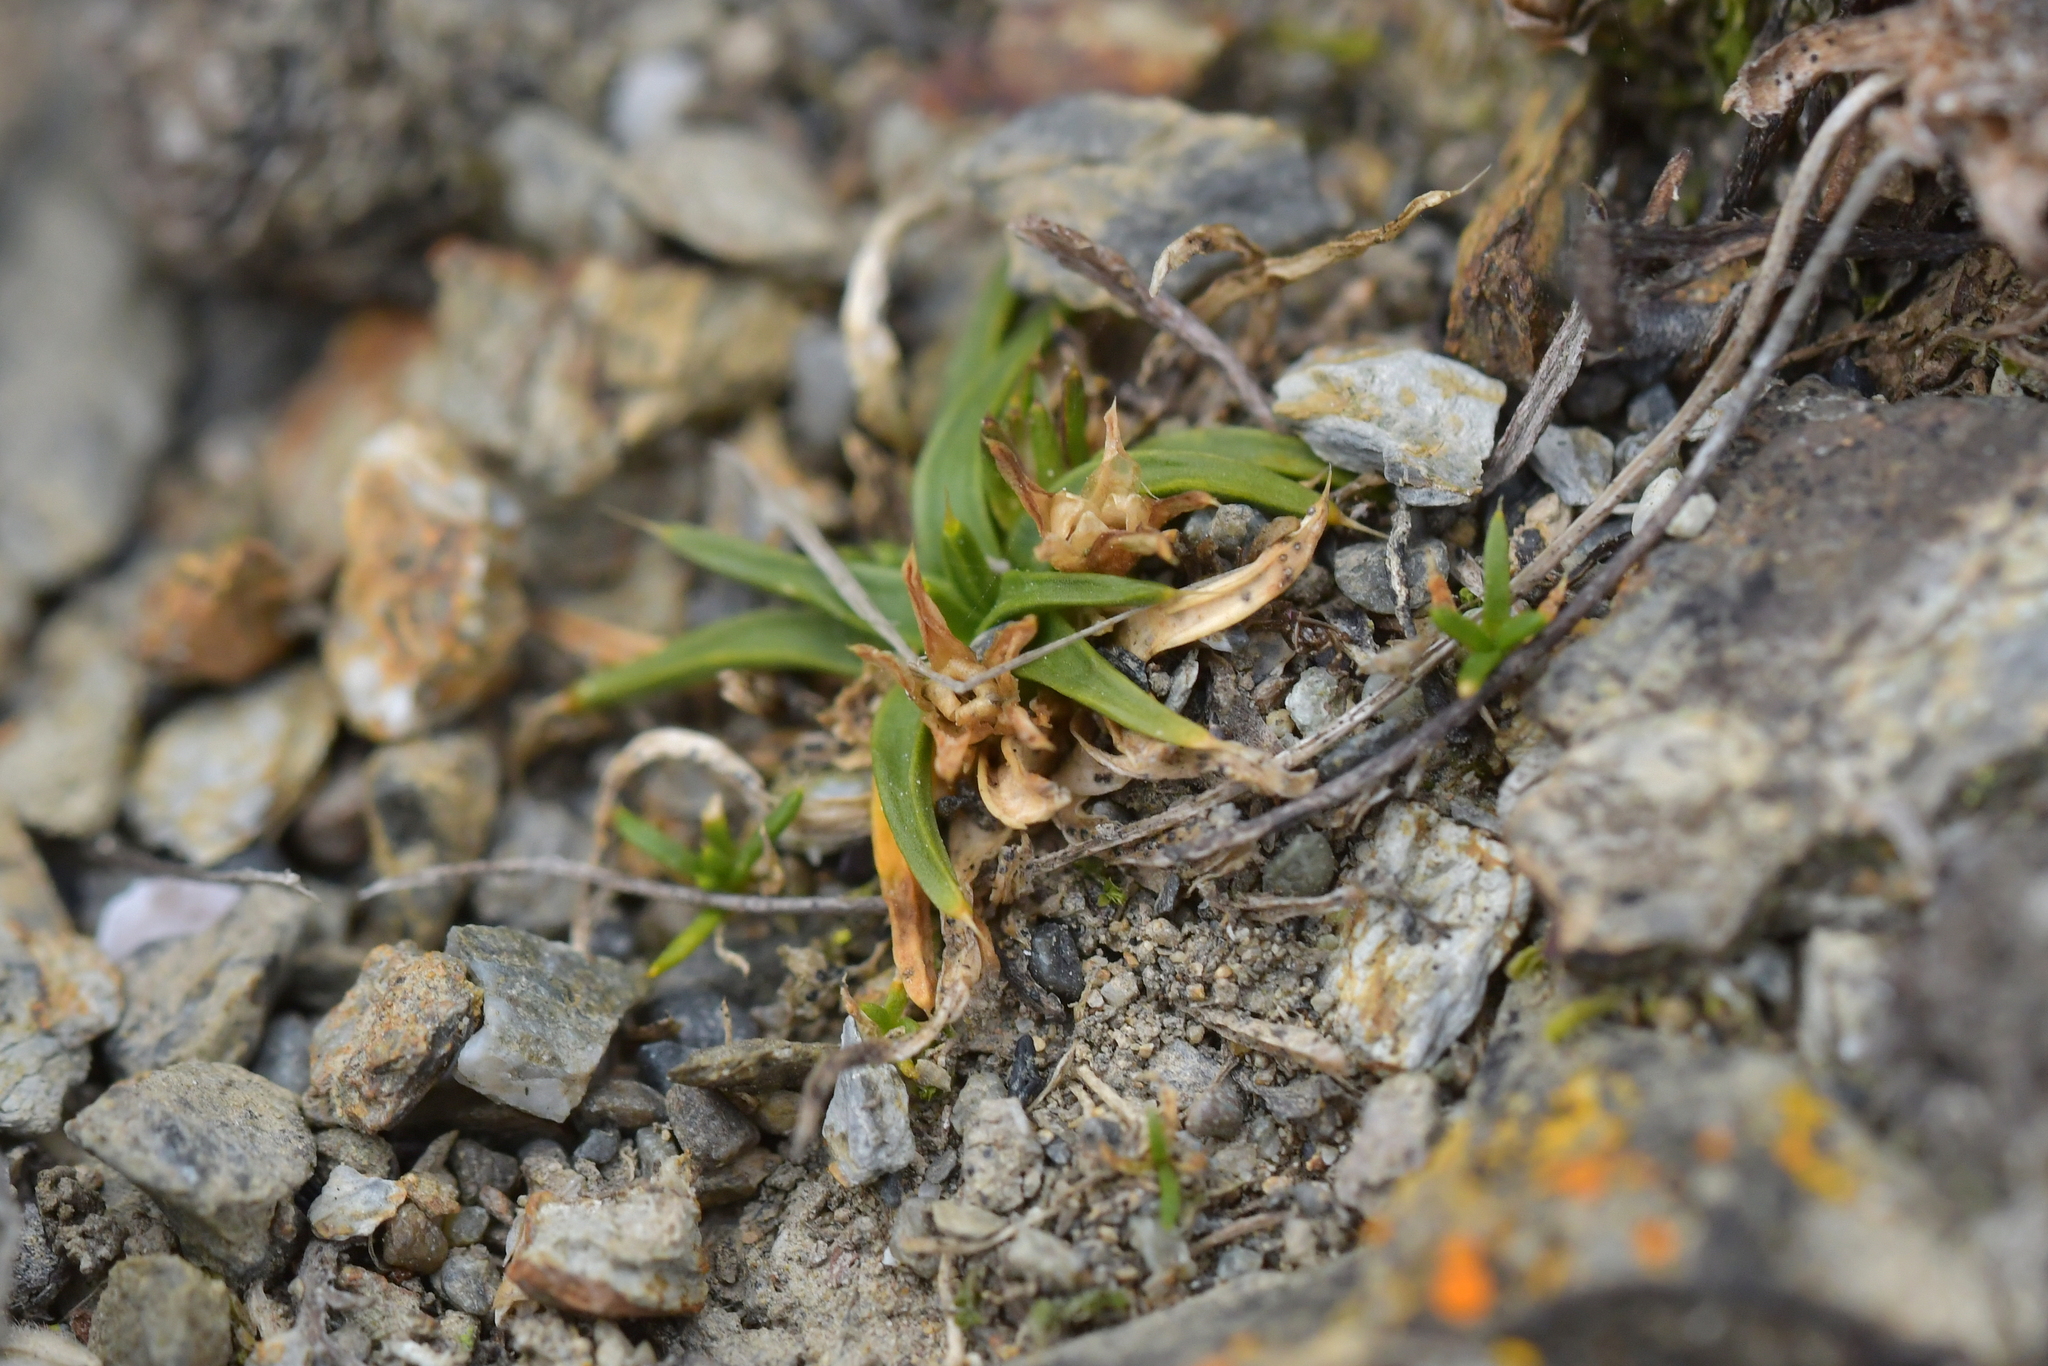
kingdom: Plantae
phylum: Tracheophyta
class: Magnoliopsida
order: Caryophyllales
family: Caryophyllaceae
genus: Colobanthus
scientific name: Colobanthus muelleri
